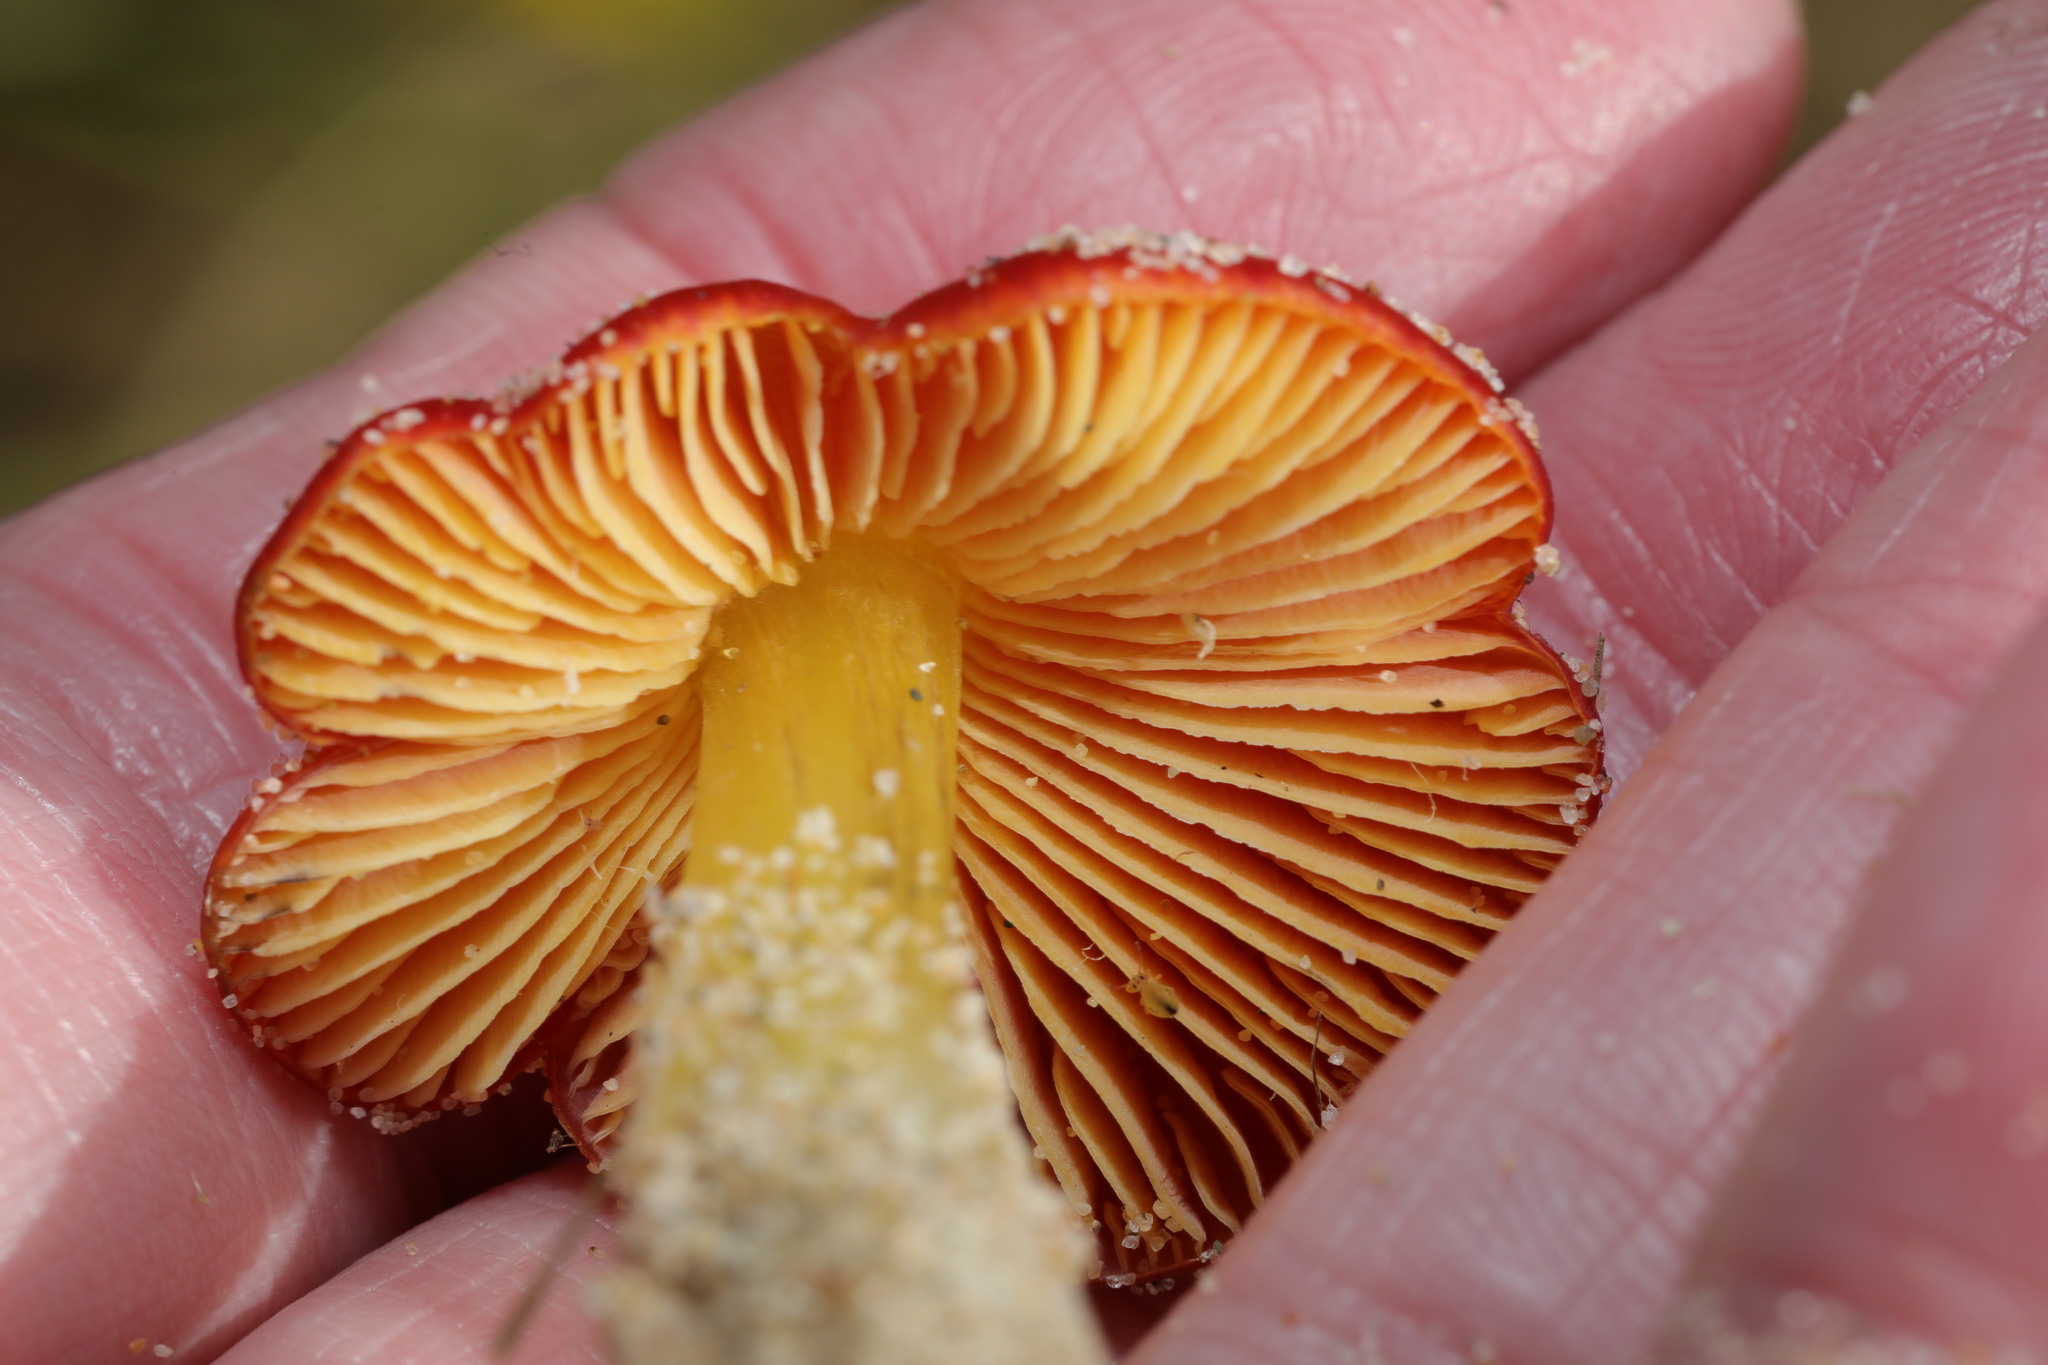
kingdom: Fungi
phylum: Basidiomycota
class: Agaricomycetes
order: Agaricales
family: Hygrophoraceae
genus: Hygrocybe
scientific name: Hygrocybe conicoides
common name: Dune waxcap
